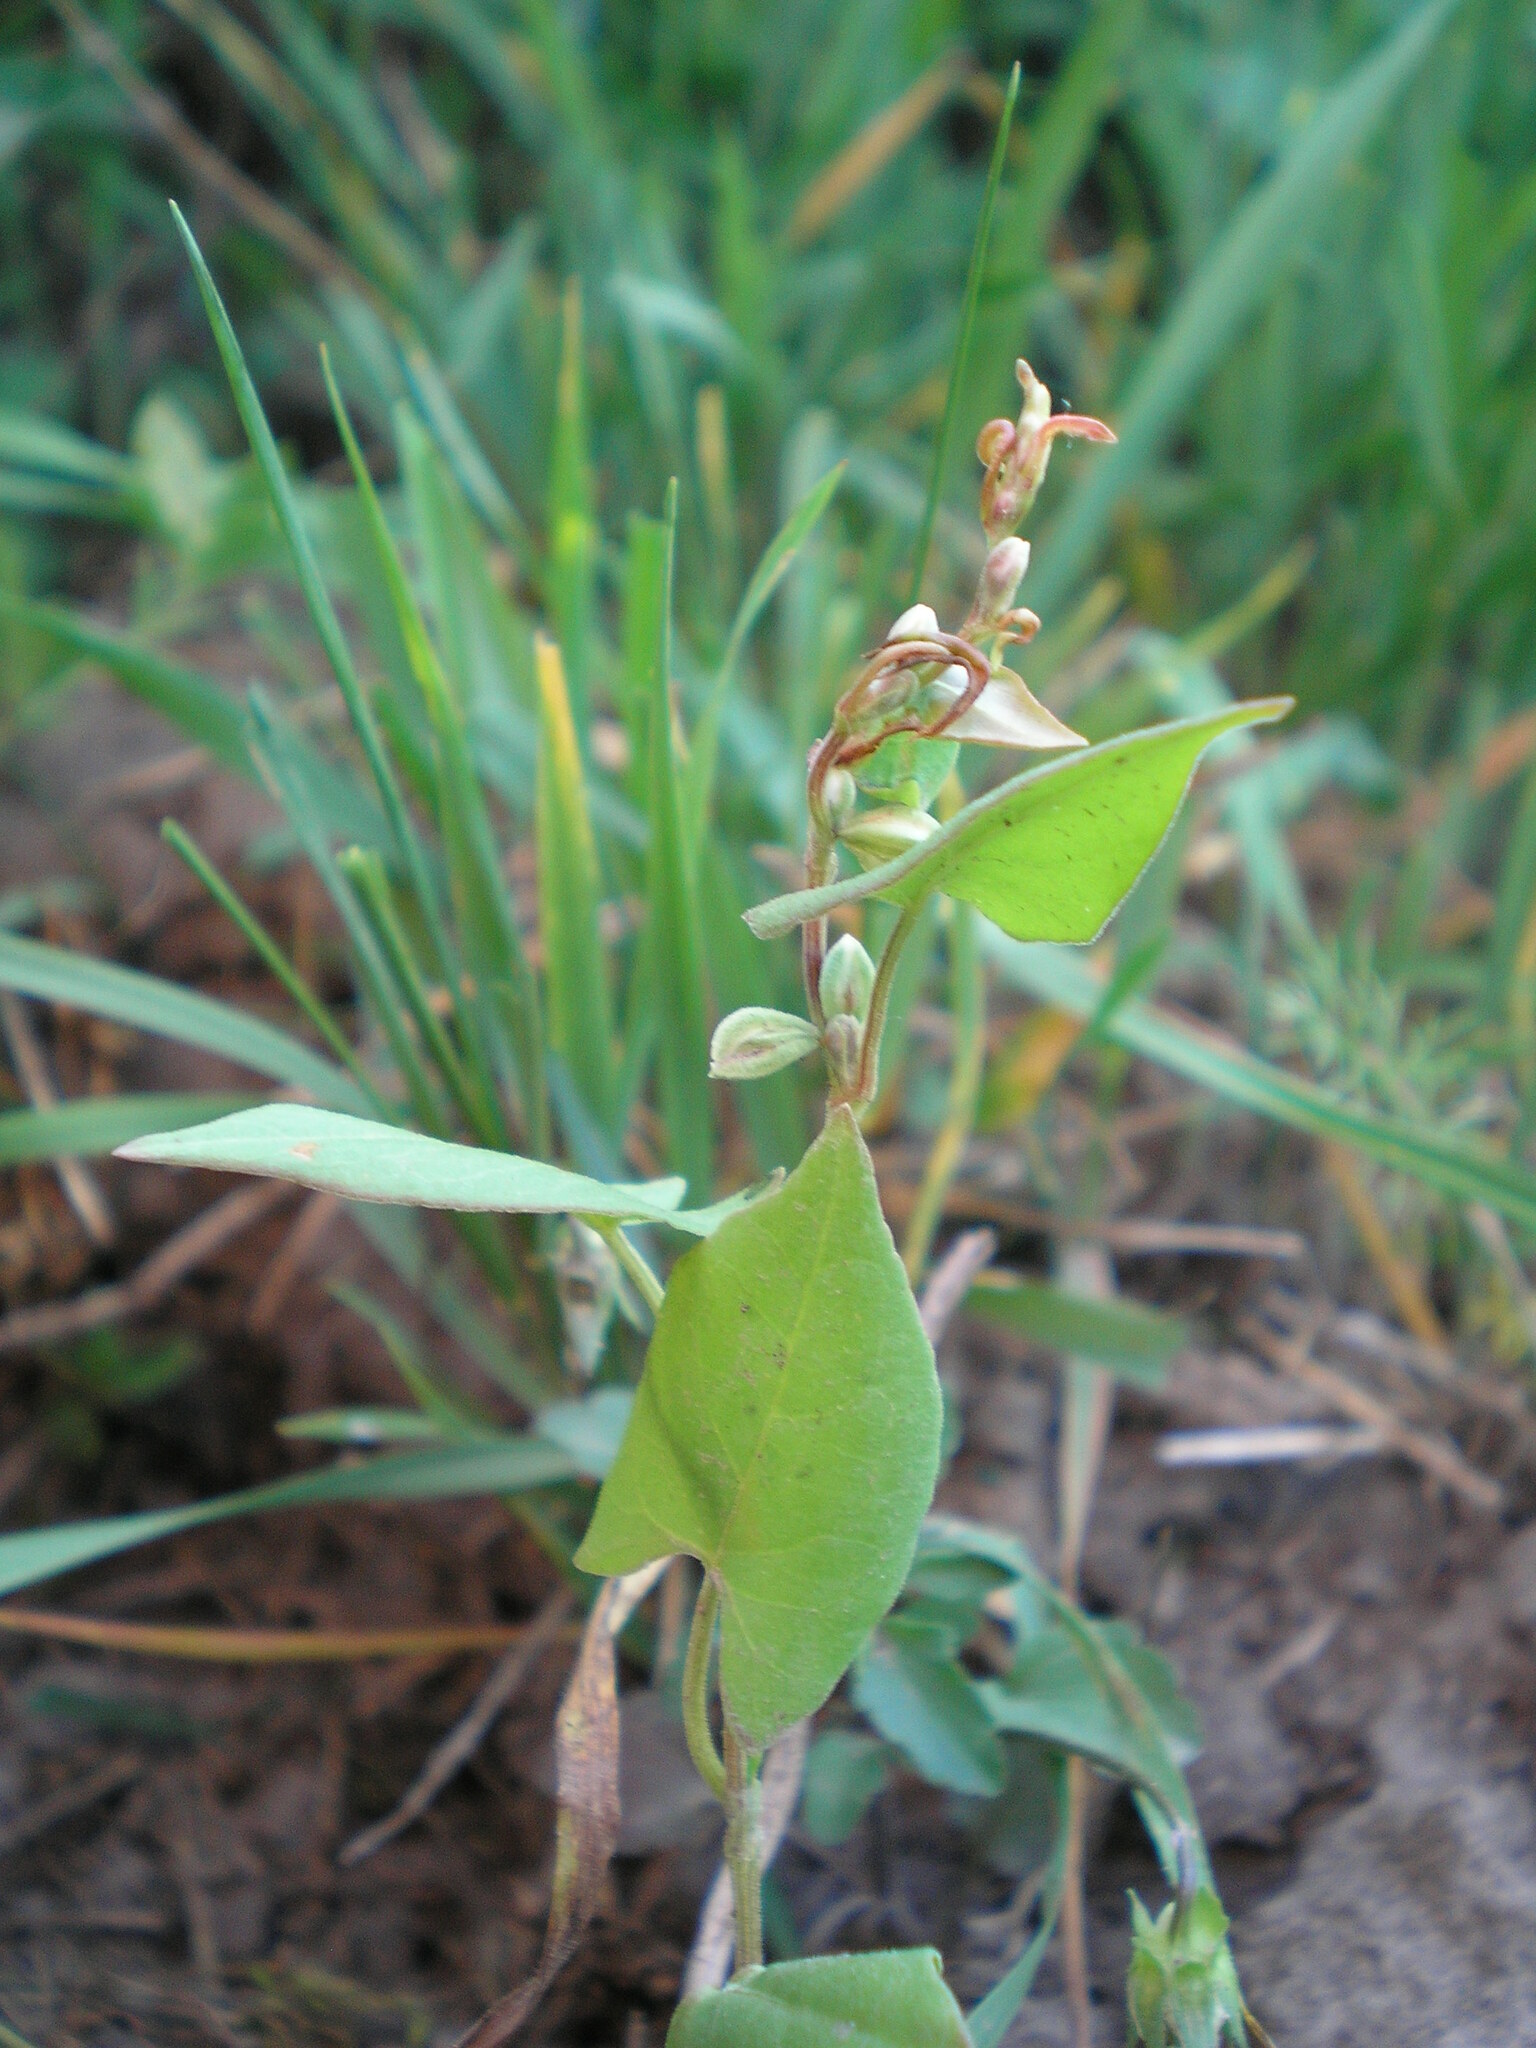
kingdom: Plantae
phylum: Tracheophyta
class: Magnoliopsida
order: Caryophyllales
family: Polygonaceae
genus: Fallopia
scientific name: Fallopia convolvulus
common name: Black bindweed
